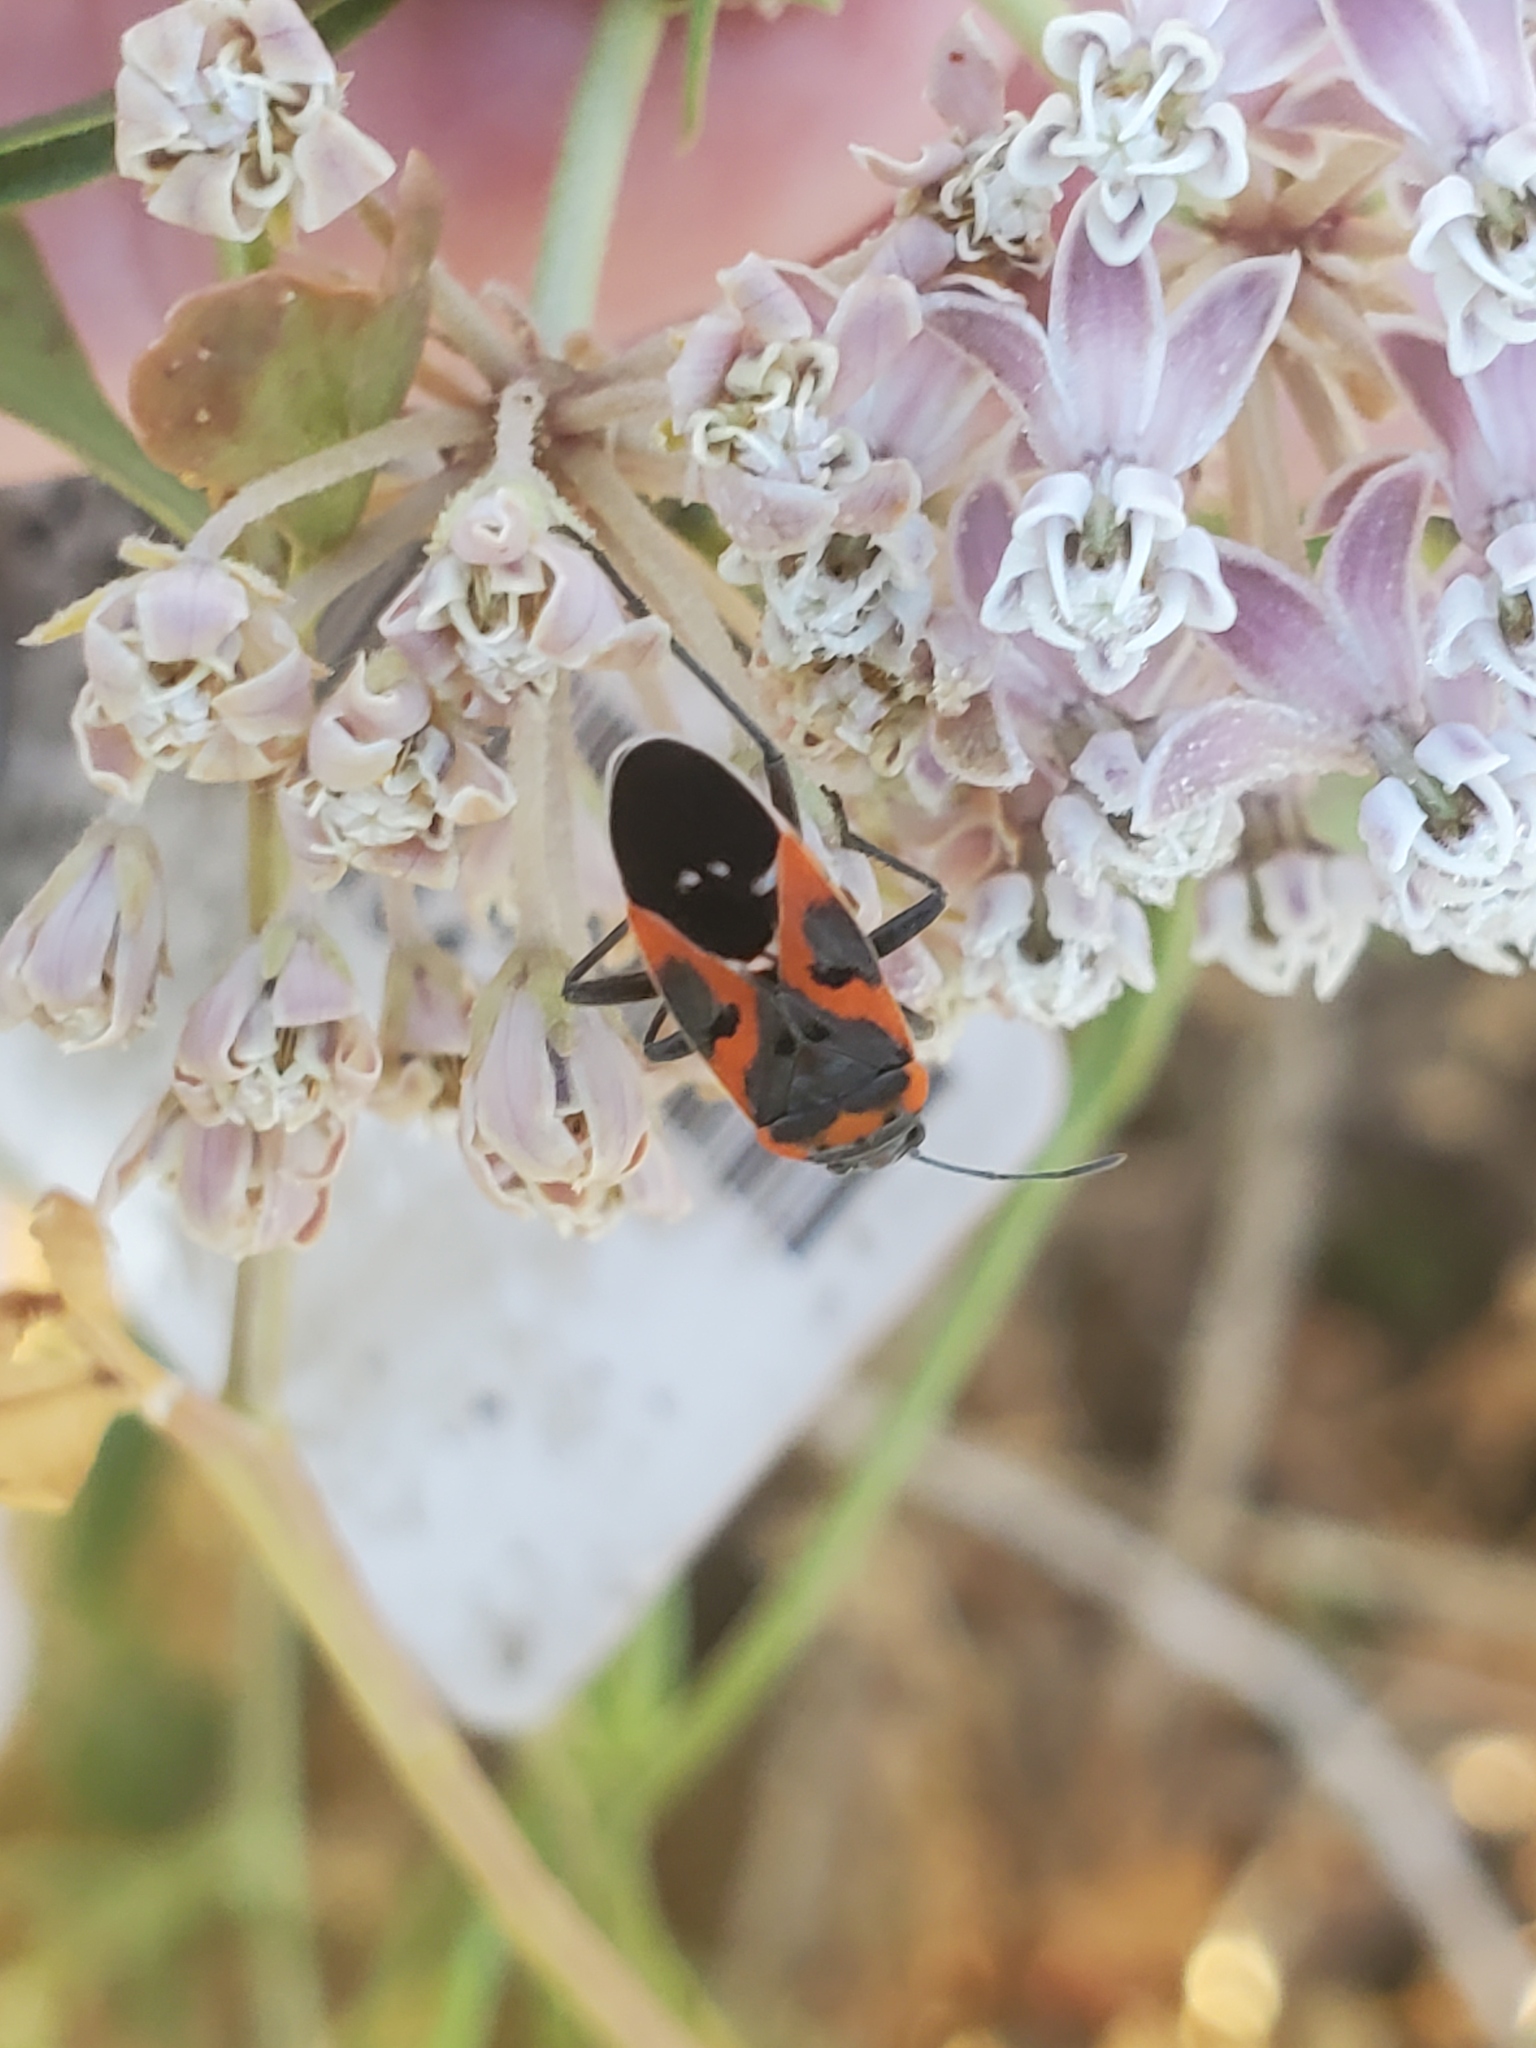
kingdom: Animalia
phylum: Arthropoda
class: Insecta
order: Hemiptera
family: Lygaeidae
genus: Lygaeus
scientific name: Lygaeus kalmii
